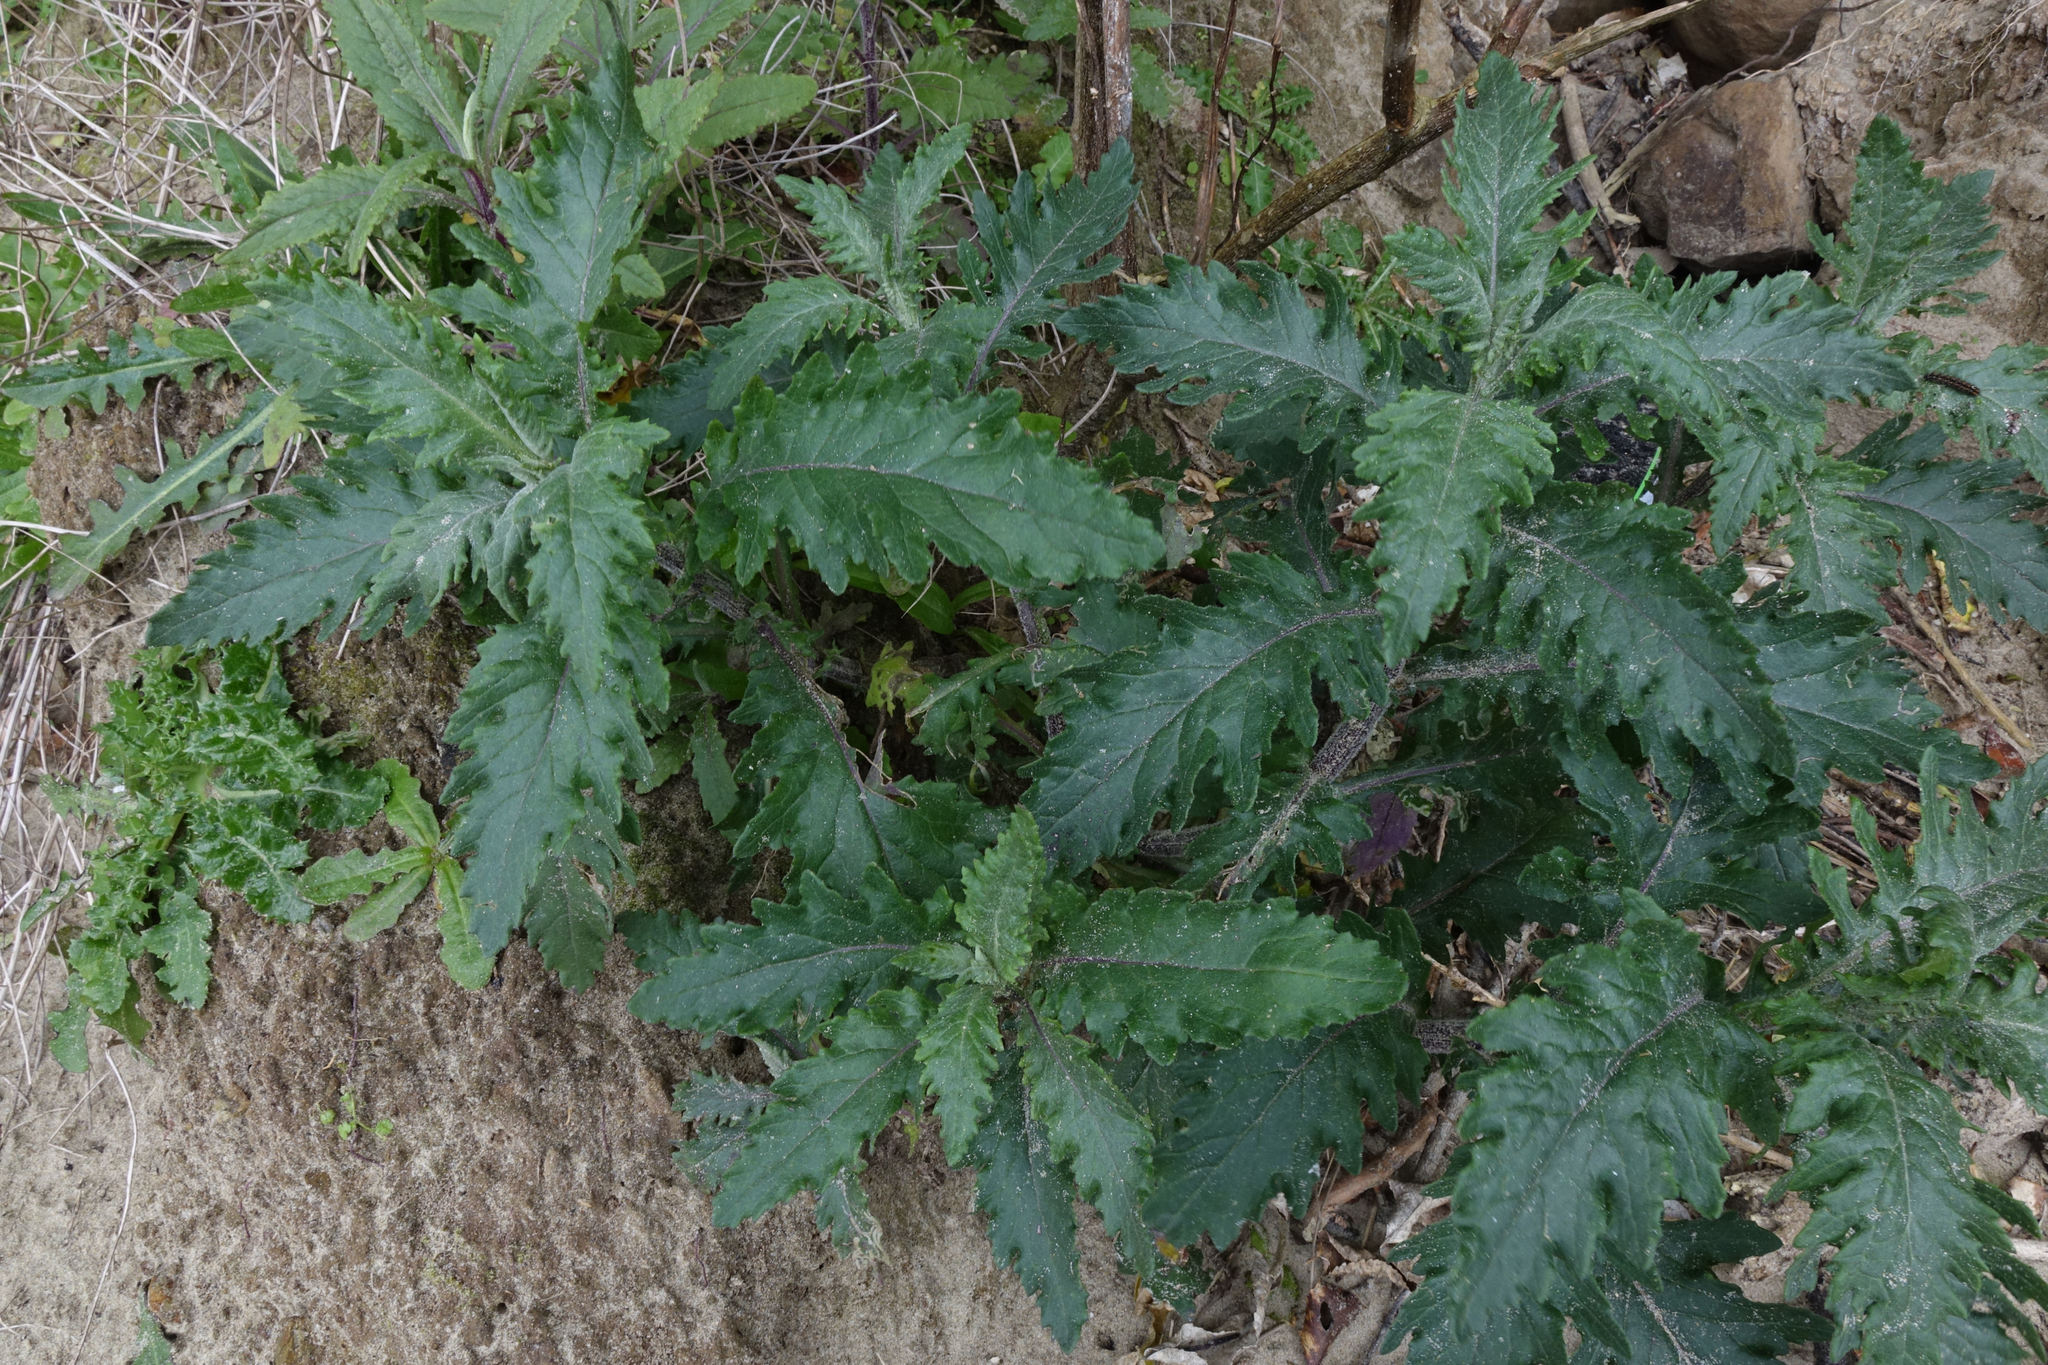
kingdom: Plantae
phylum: Tracheophyta
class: Magnoliopsida
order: Asterales
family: Asteraceae
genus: Senecio
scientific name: Senecio biserratus
